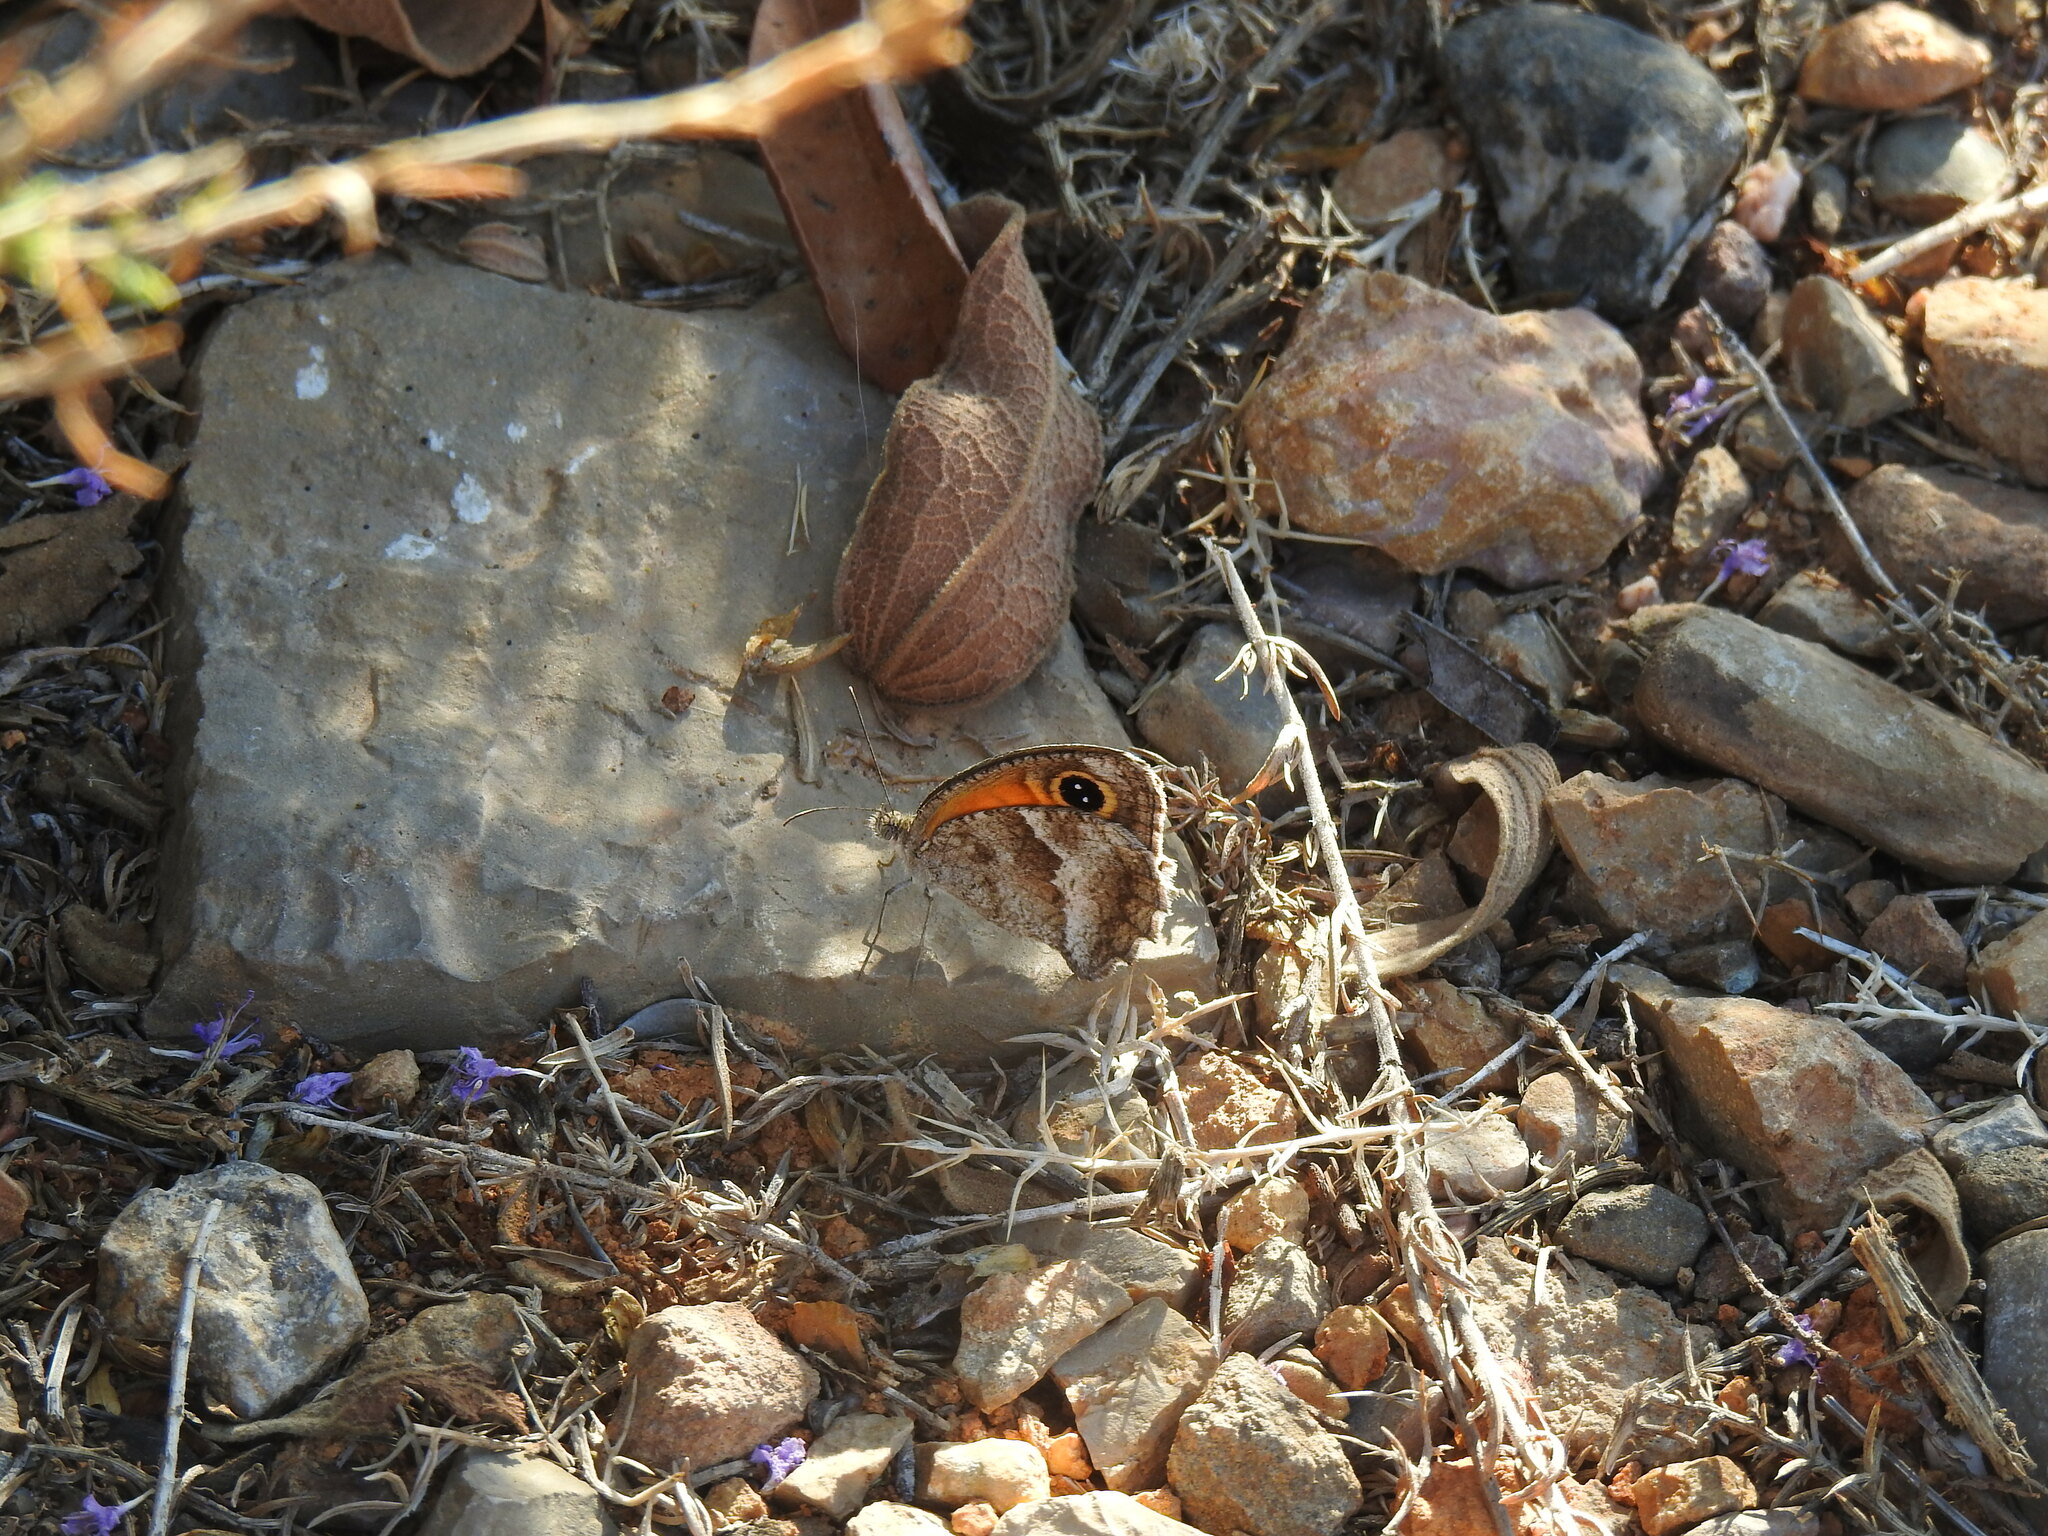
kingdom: Animalia
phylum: Arthropoda
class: Insecta
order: Lepidoptera
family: Nymphalidae
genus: Pyronia
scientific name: Pyronia cecilia
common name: Southern gatekeeper
